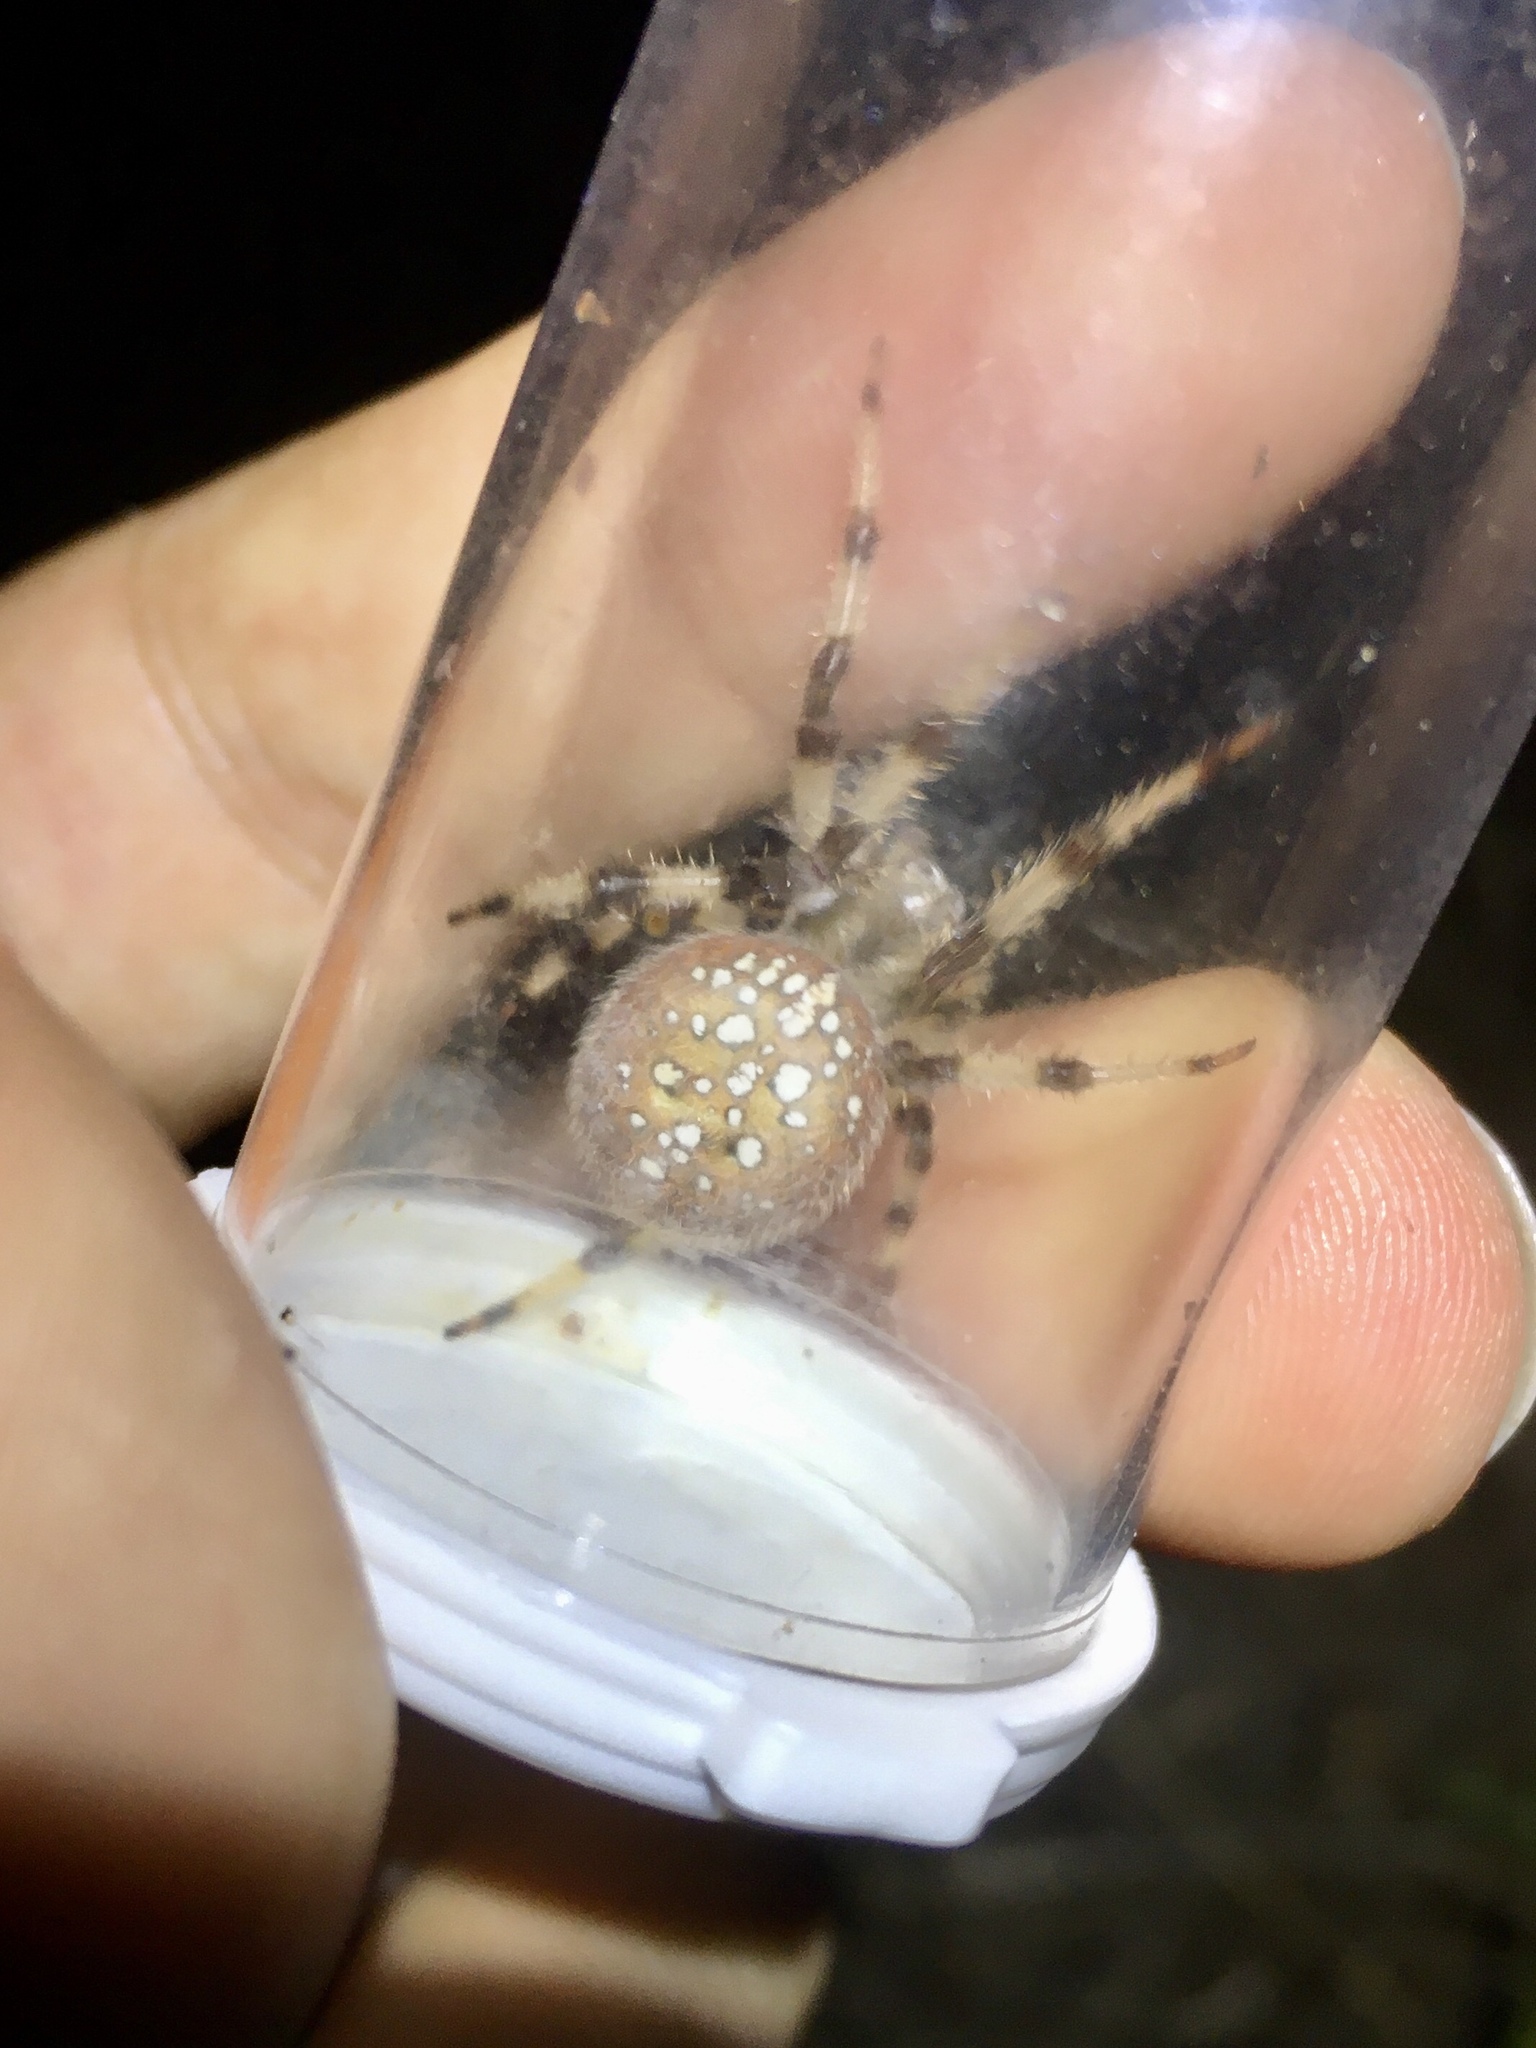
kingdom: Animalia
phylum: Arthropoda
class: Arachnida
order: Araneae
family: Araneidae
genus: Araneus
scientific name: Araneus trifolium
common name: Shamrock orbweaver
